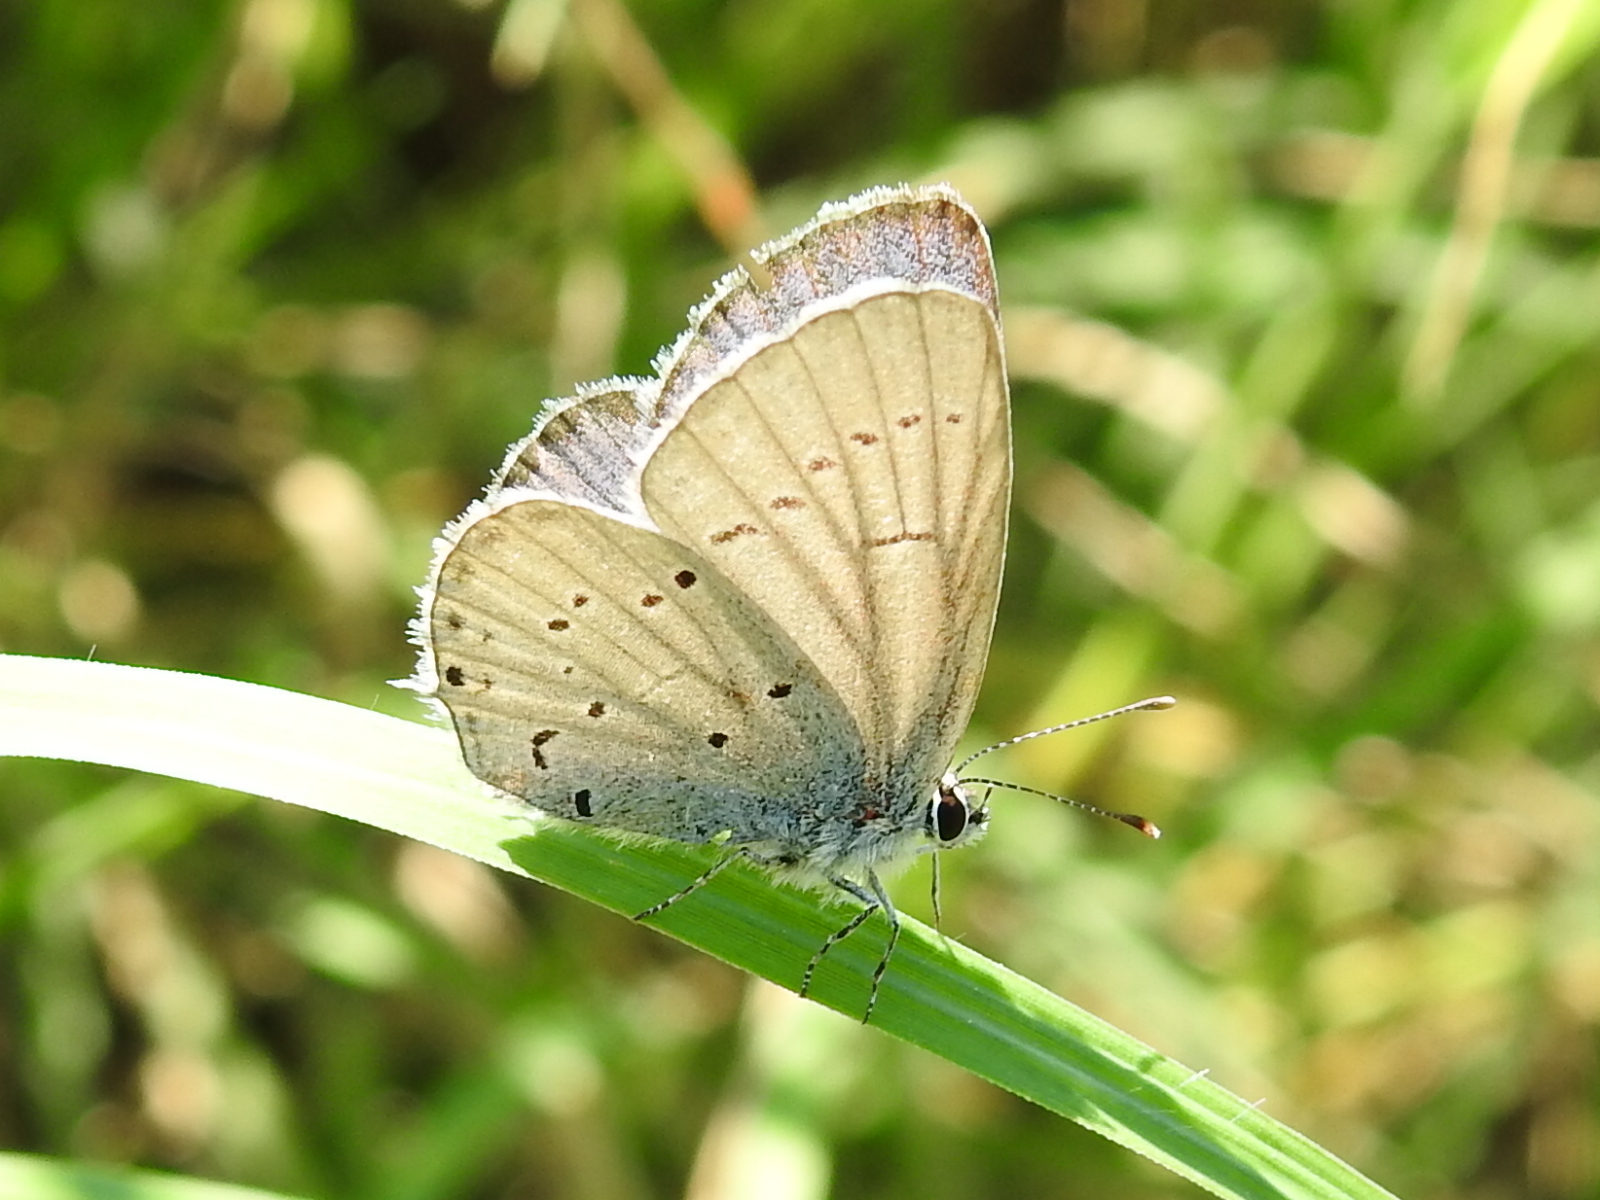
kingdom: Animalia
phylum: Arthropoda
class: Insecta
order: Lepidoptera
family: Lycaenidae
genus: Elkalyce
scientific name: Elkalyce alcetas
